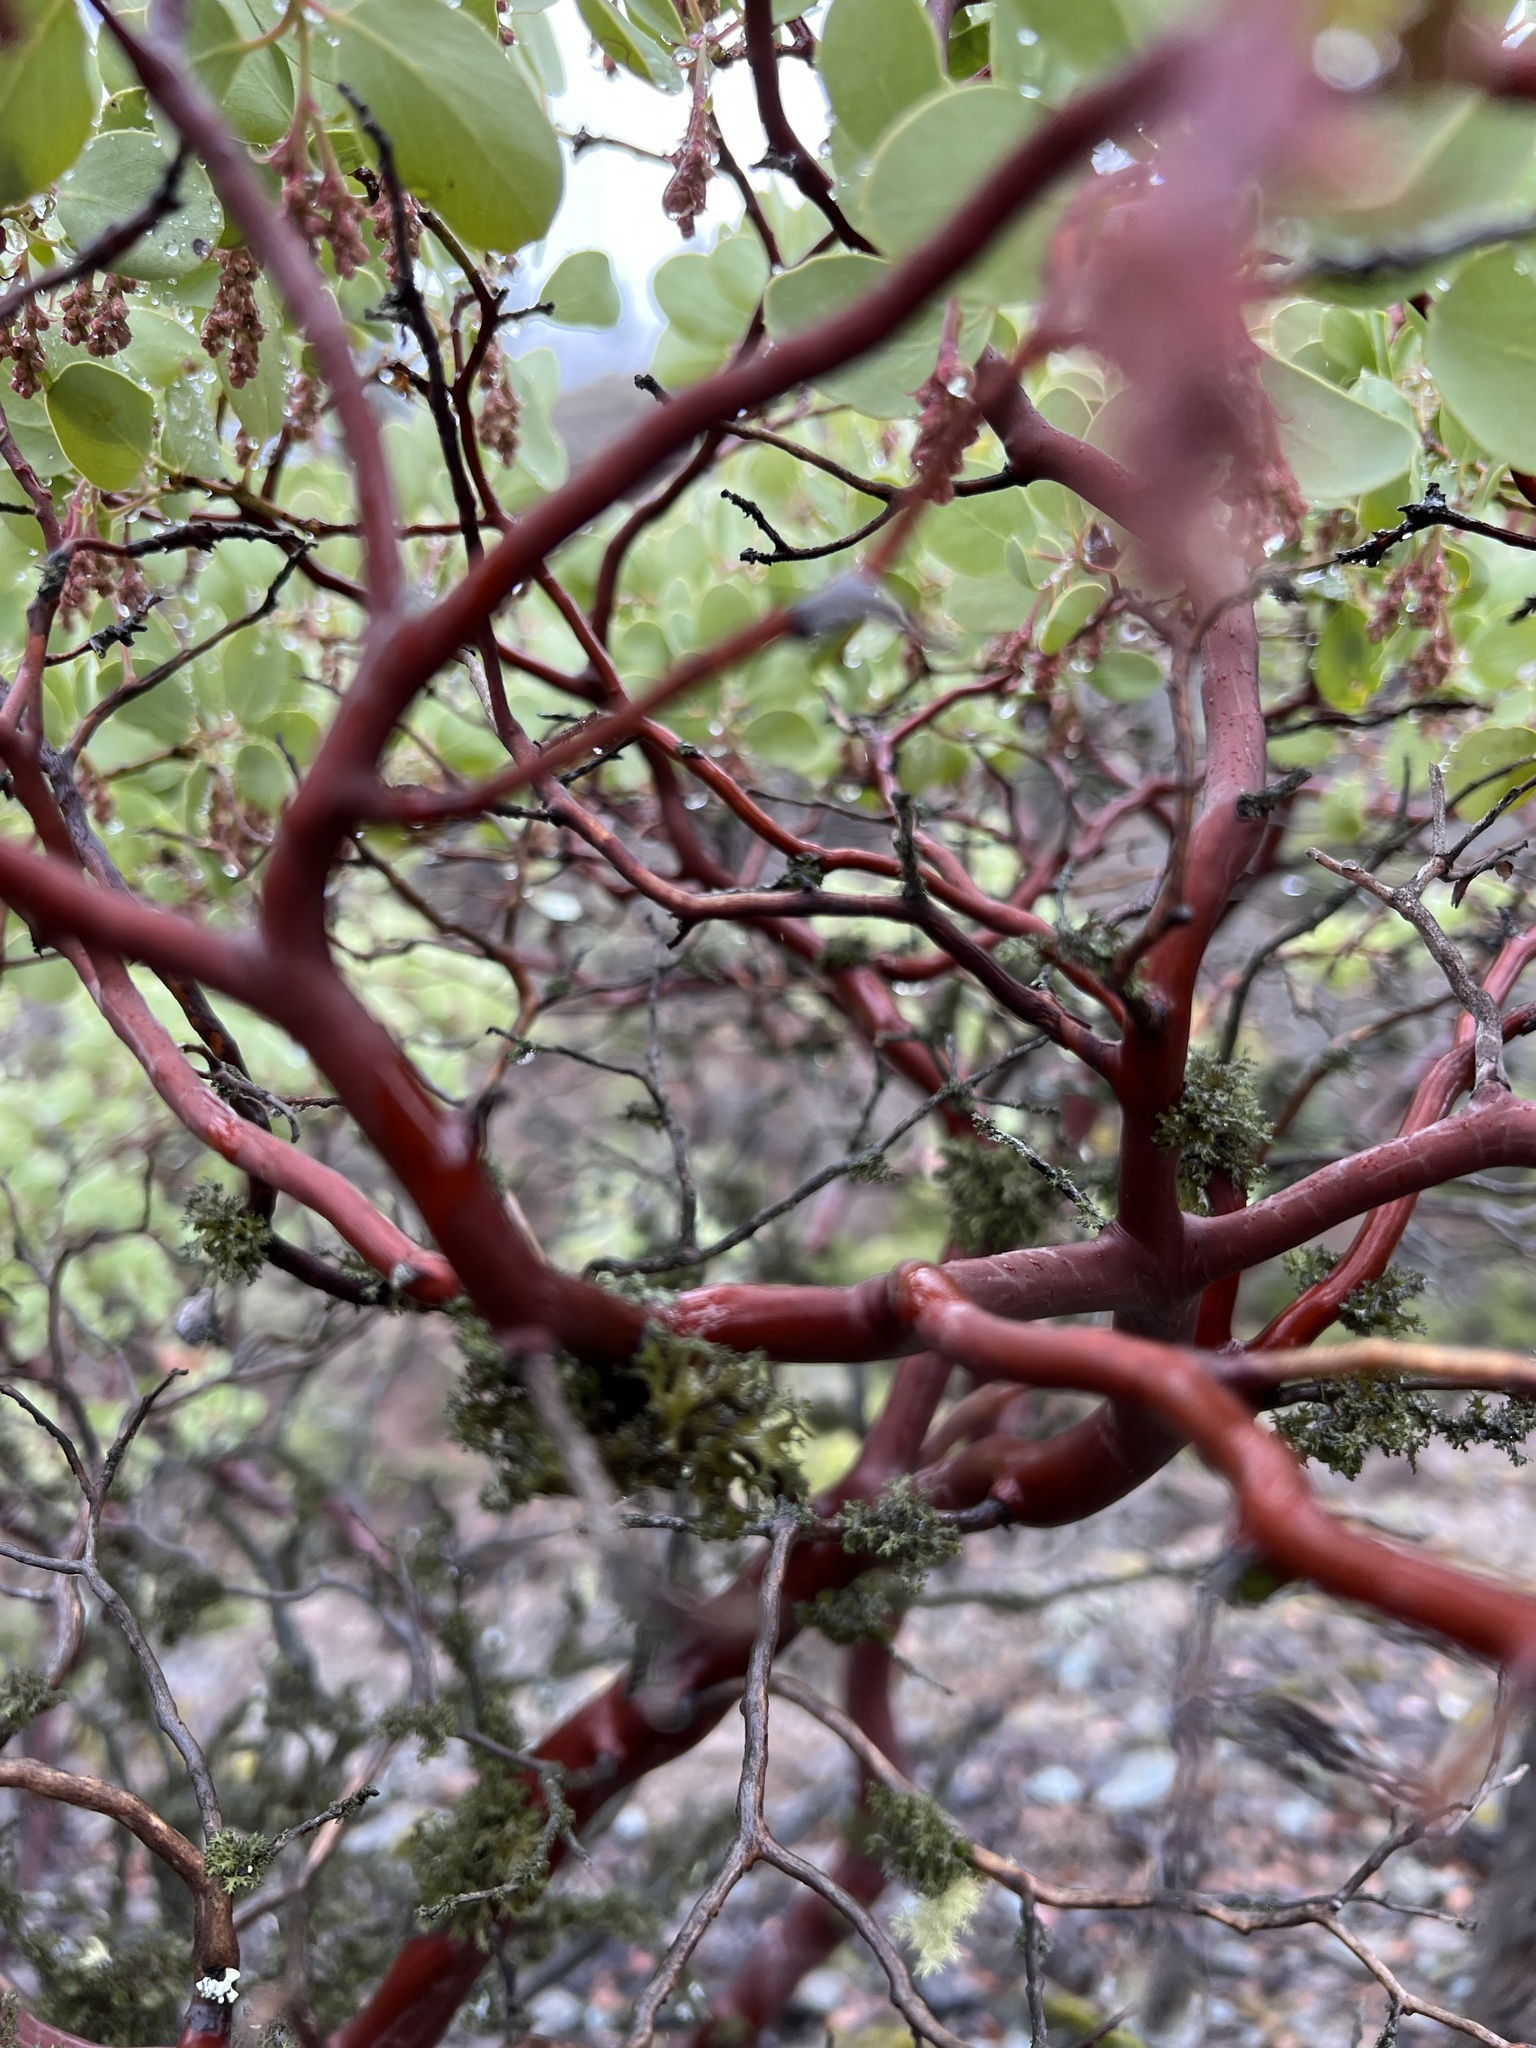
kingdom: Plantae
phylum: Tracheophyta
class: Magnoliopsida
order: Ericales
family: Ericaceae
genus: Arctostaphylos
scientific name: Arctostaphylos viscida
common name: White-leaf manzanita
